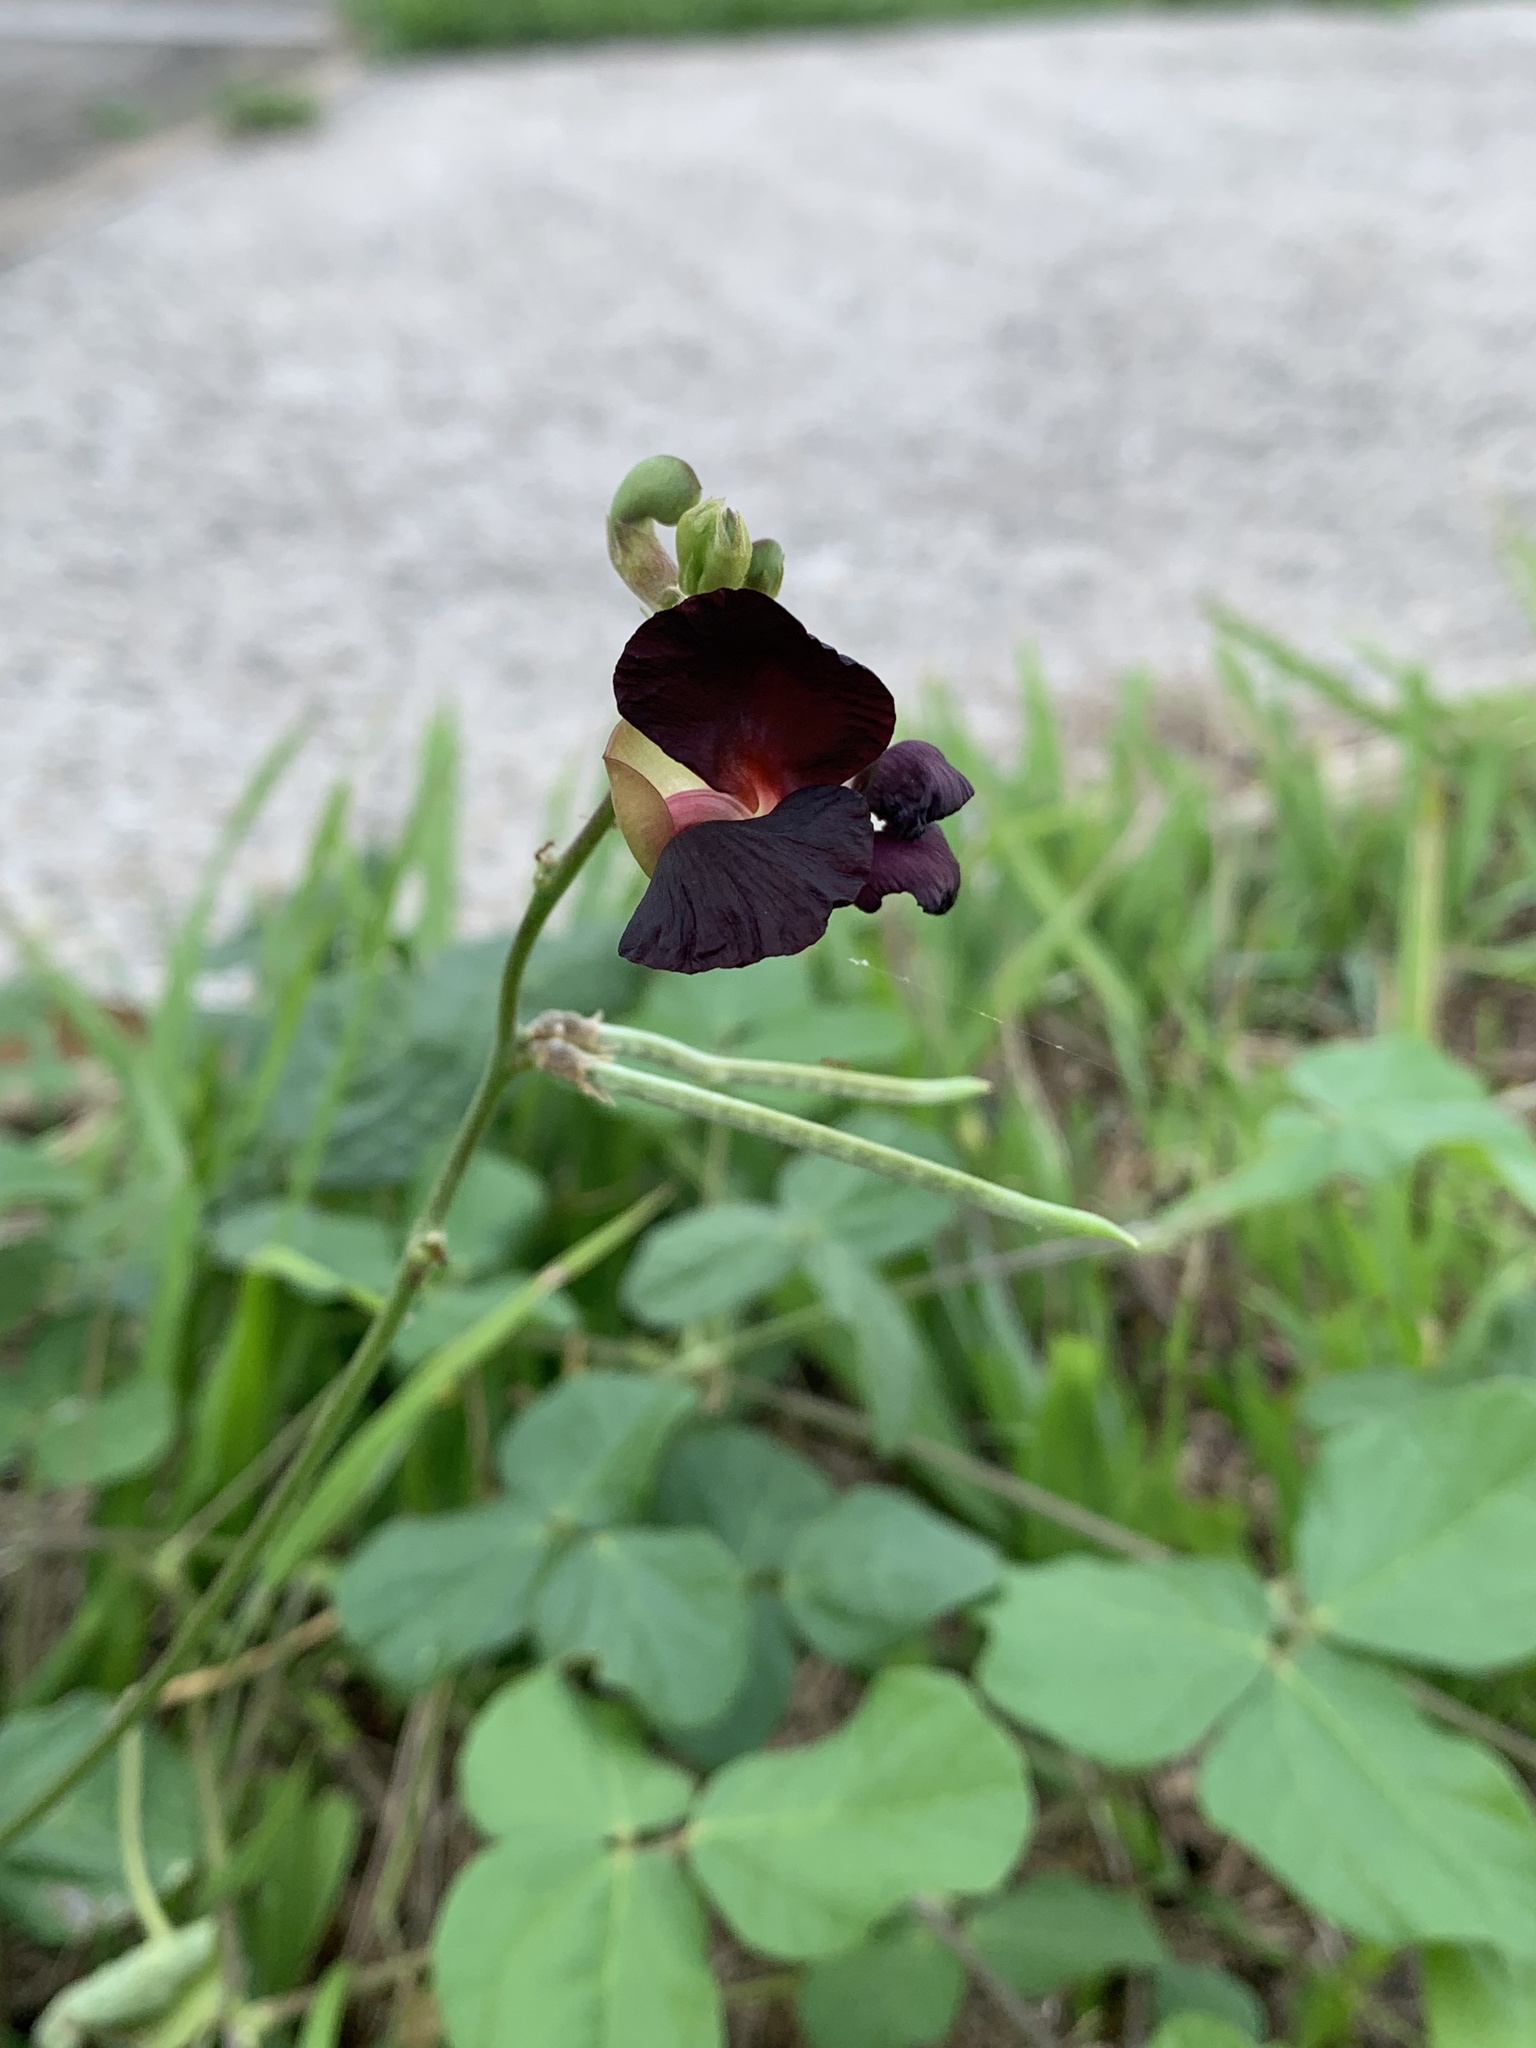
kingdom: Plantae
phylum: Tracheophyta
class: Magnoliopsida
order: Fabales
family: Fabaceae
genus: Macroptilium
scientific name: Macroptilium atropurpureum
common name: Purple bushbean
